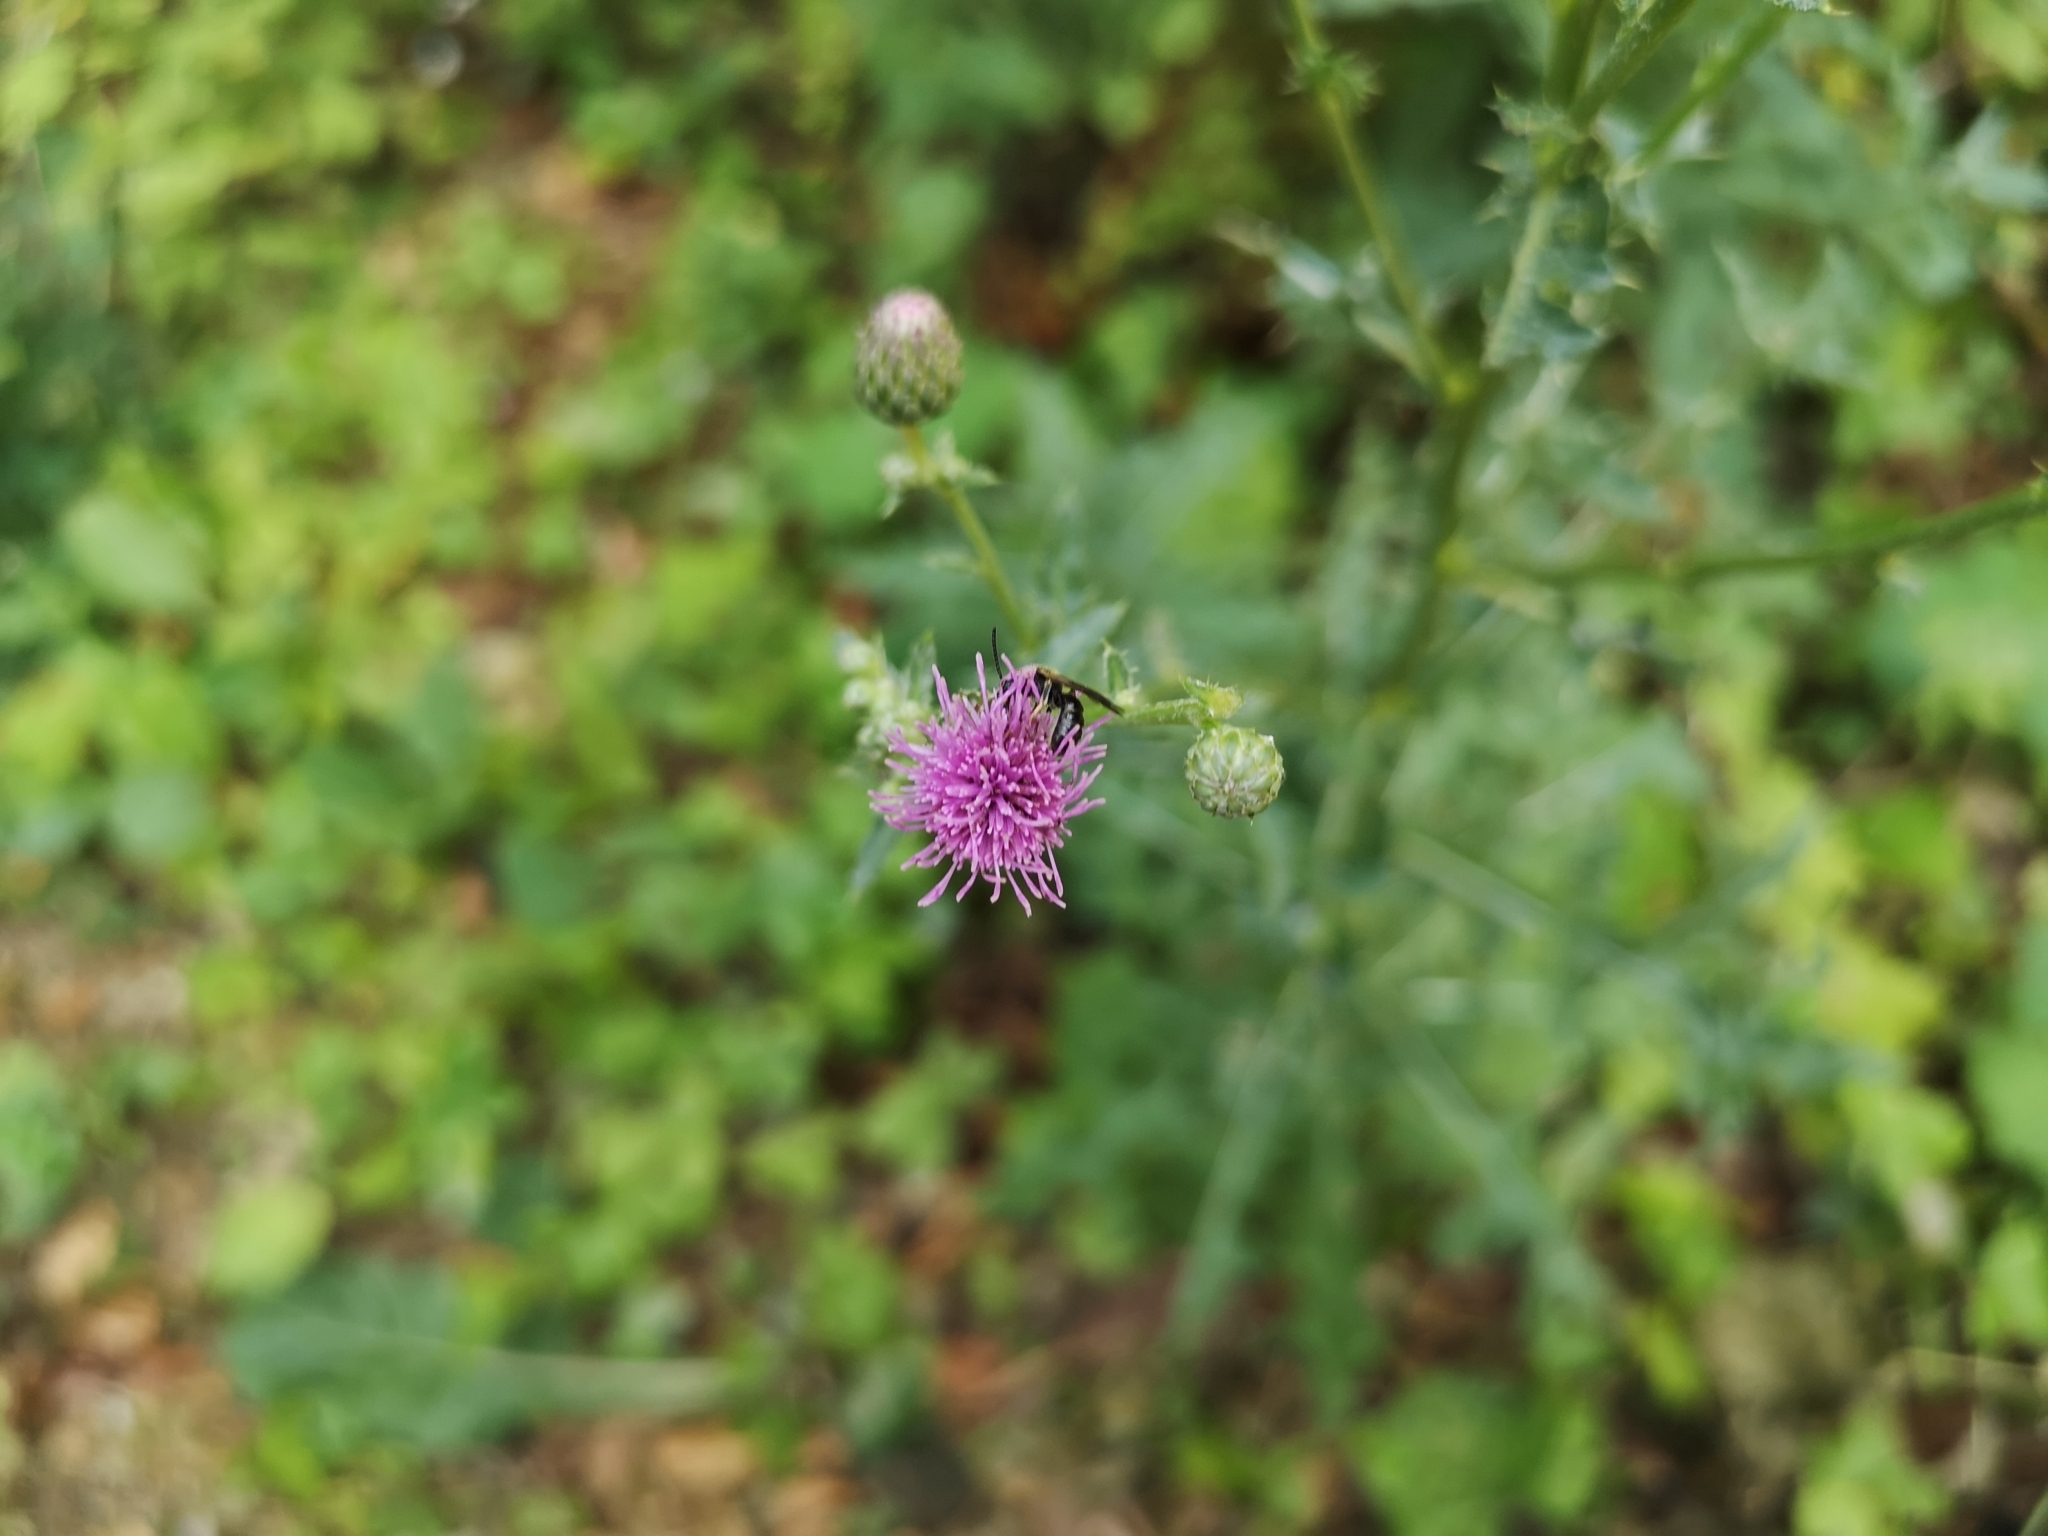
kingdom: Plantae
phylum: Tracheophyta
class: Magnoliopsida
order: Asterales
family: Asteraceae
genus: Cirsium
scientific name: Cirsium arvense
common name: Creeping thistle
